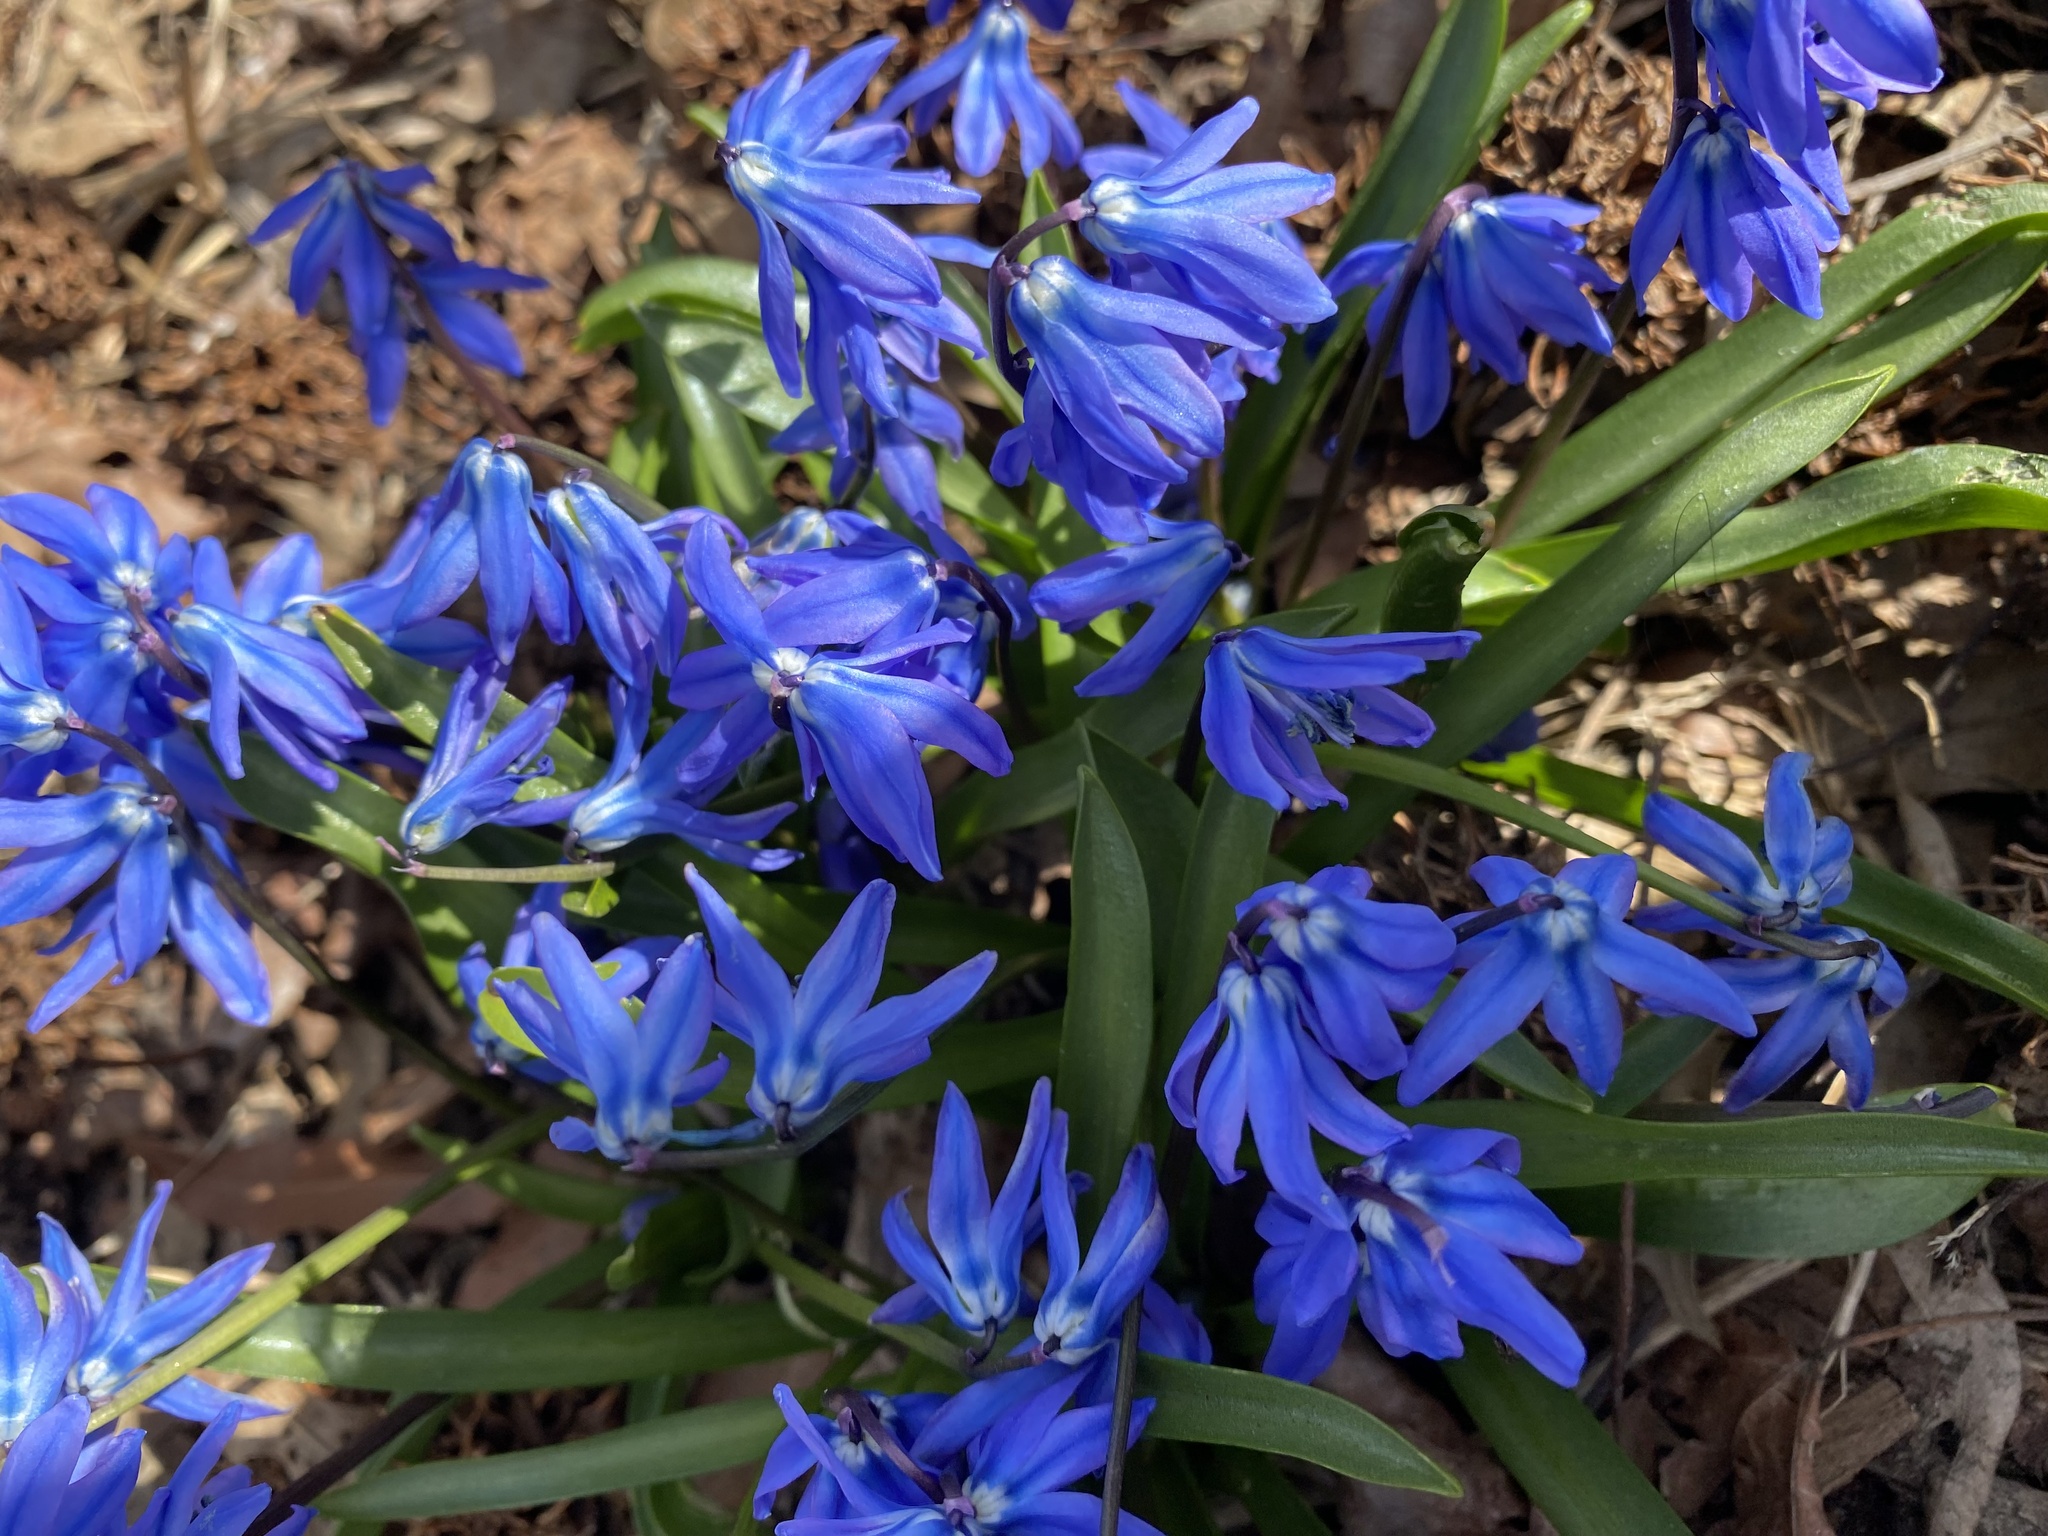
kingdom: Plantae
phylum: Tracheophyta
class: Liliopsida
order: Asparagales
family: Asparagaceae
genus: Scilla
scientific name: Scilla siberica
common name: Siberian squill
